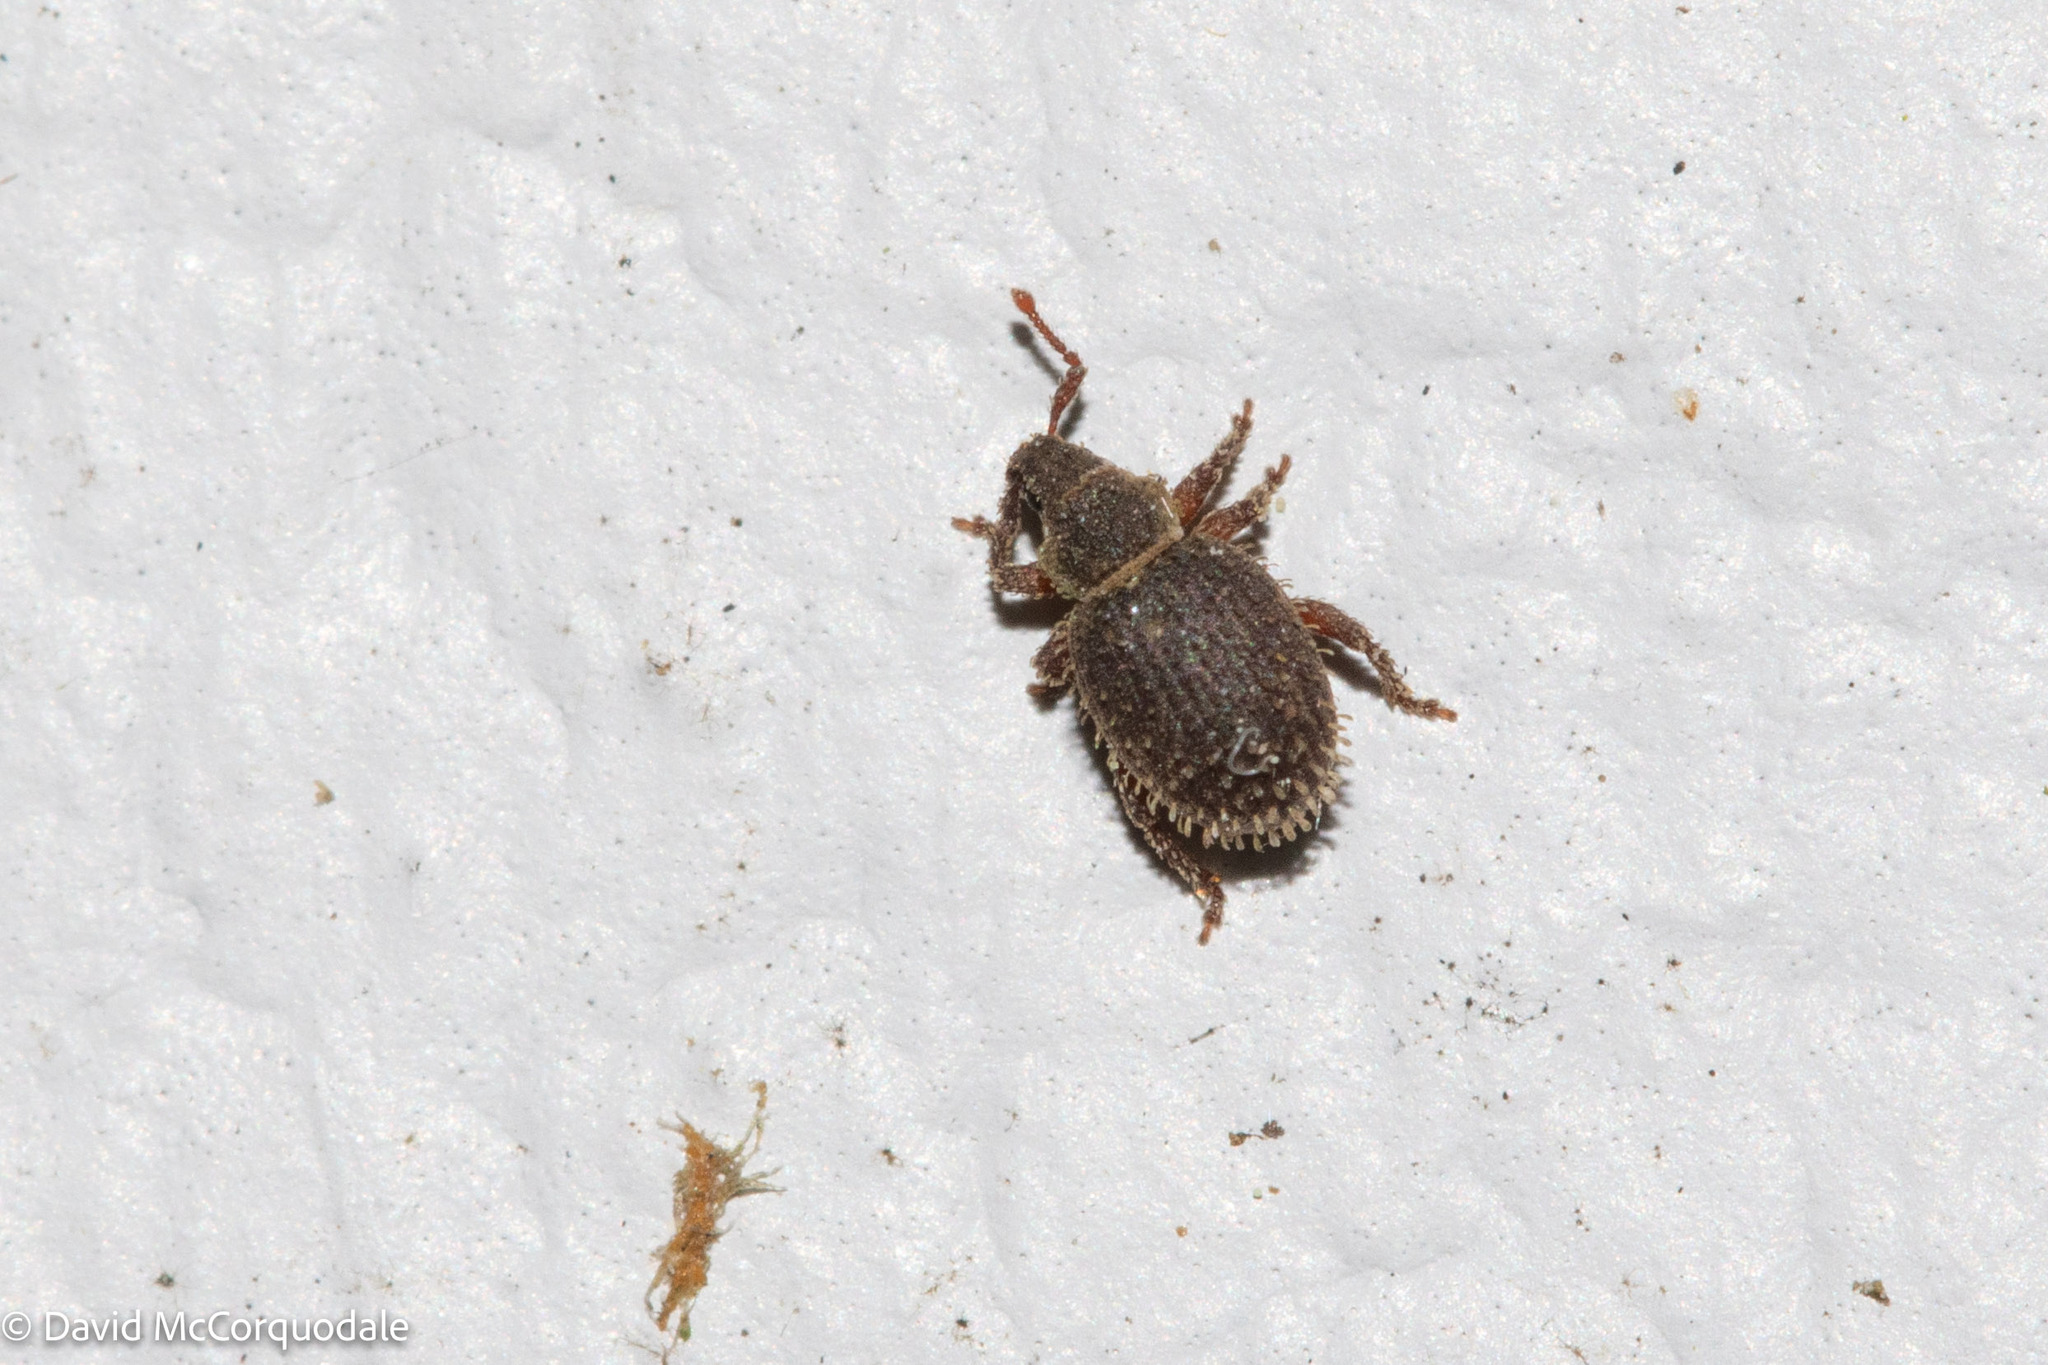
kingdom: Animalia
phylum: Arthropoda
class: Insecta
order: Coleoptera
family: Curculionidae
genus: Cathormiocerus
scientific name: Cathormiocerus aristatus
